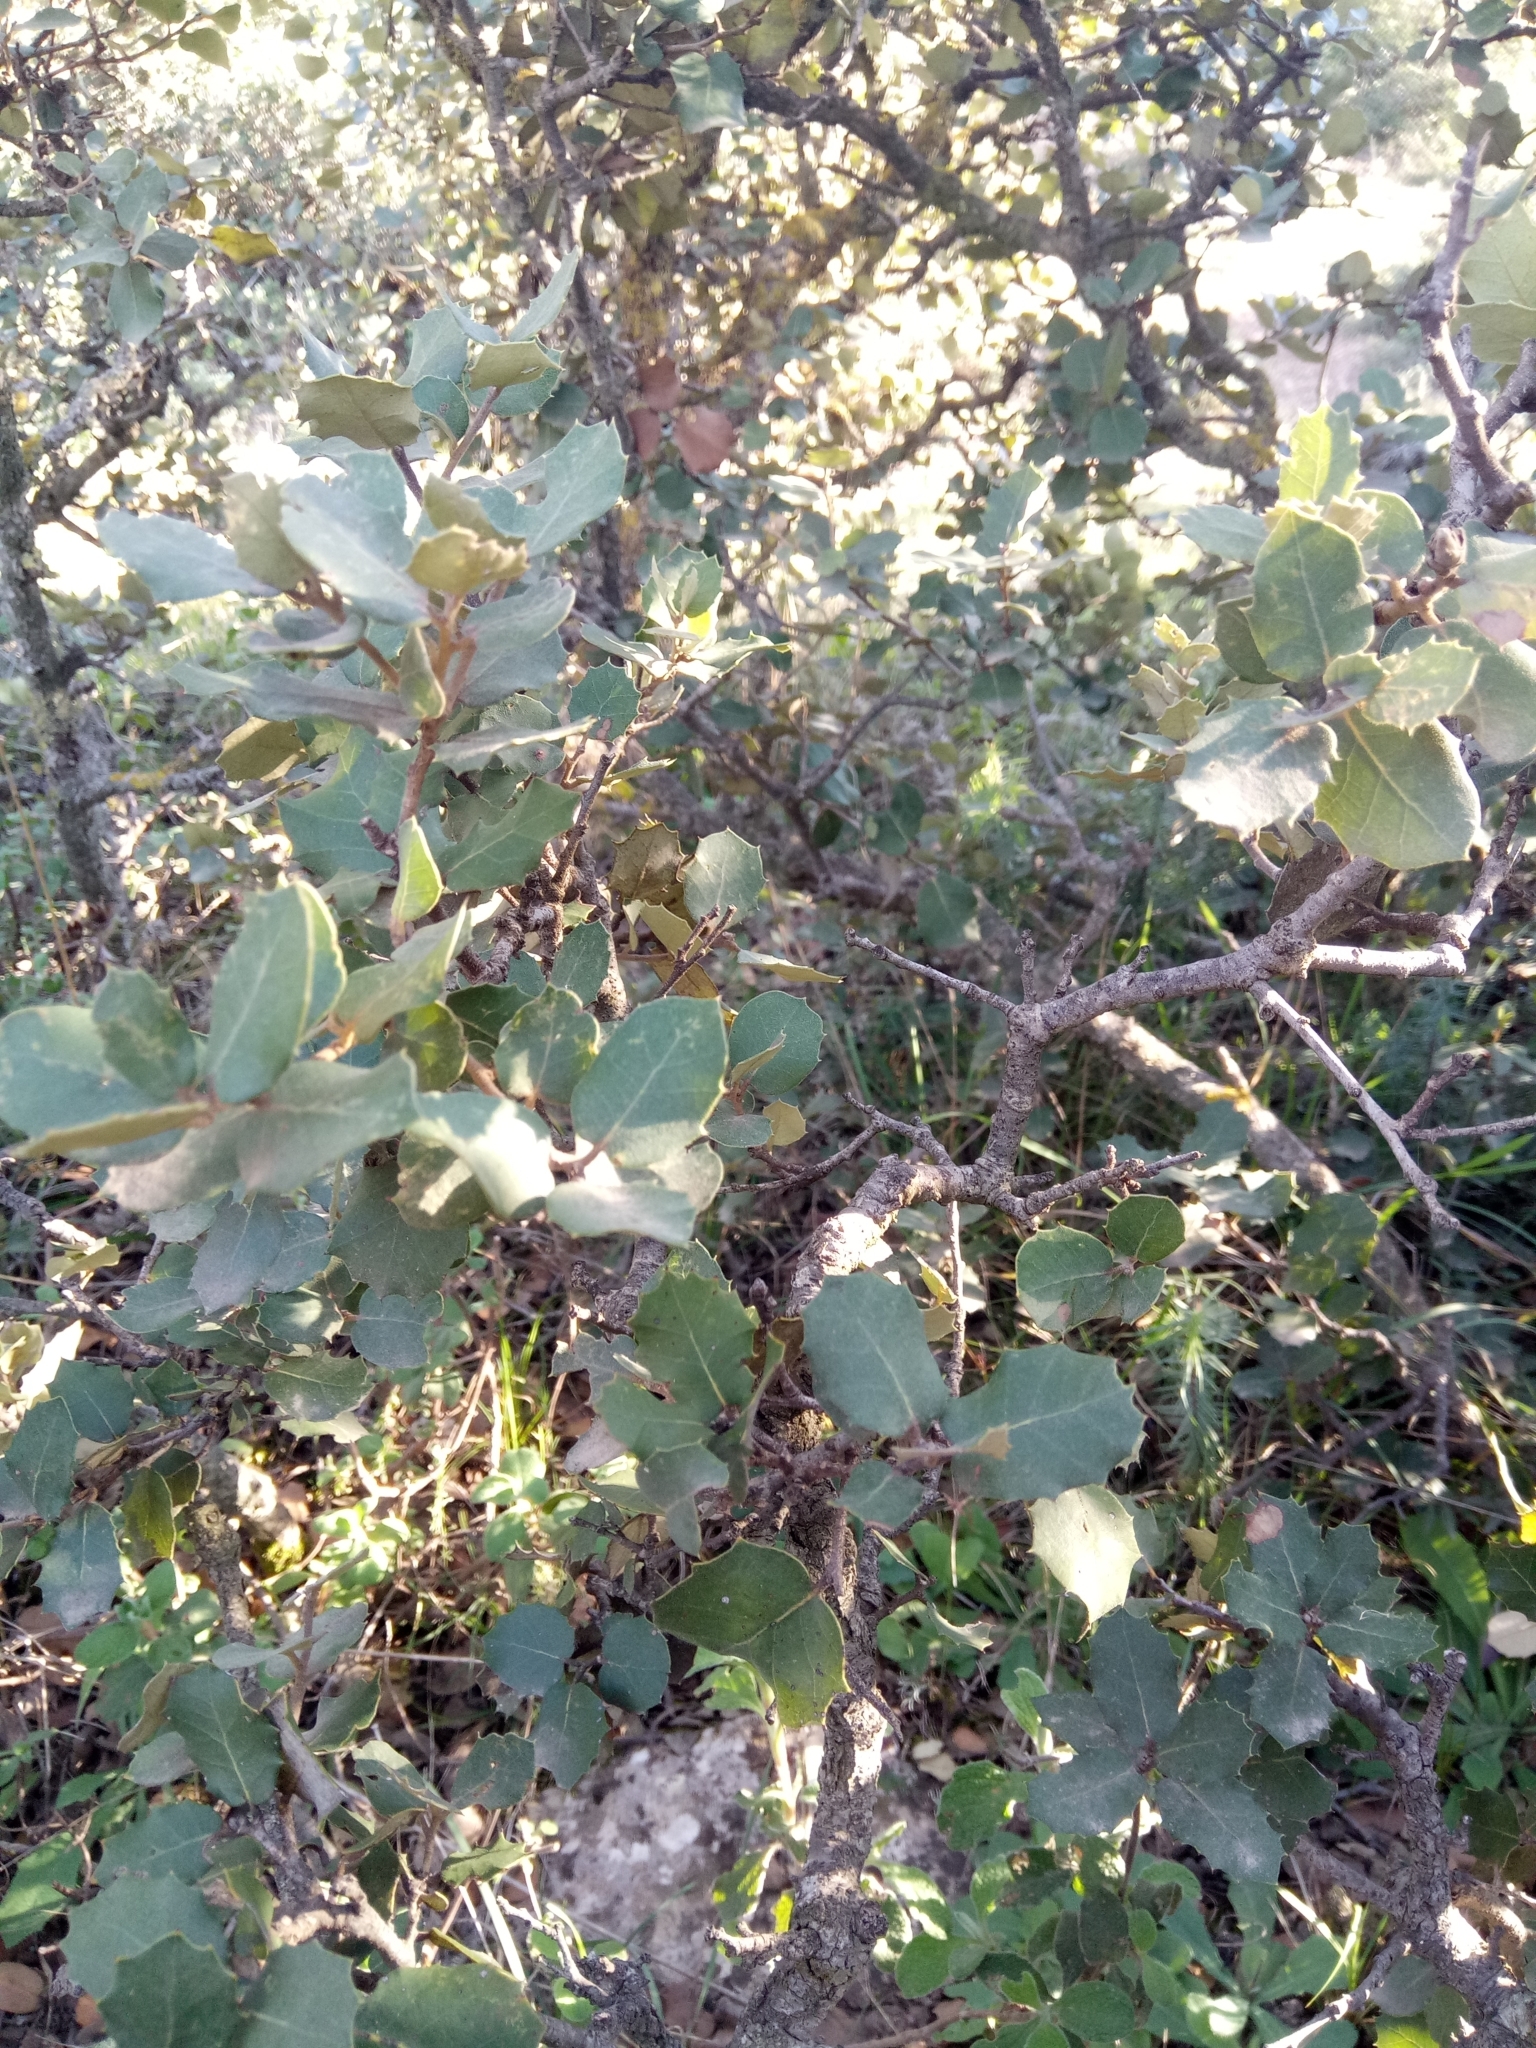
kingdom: Plantae
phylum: Tracheophyta
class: Magnoliopsida
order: Fagales
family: Fagaceae
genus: Quercus
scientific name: Quercus rotundifolia
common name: Holm oak
